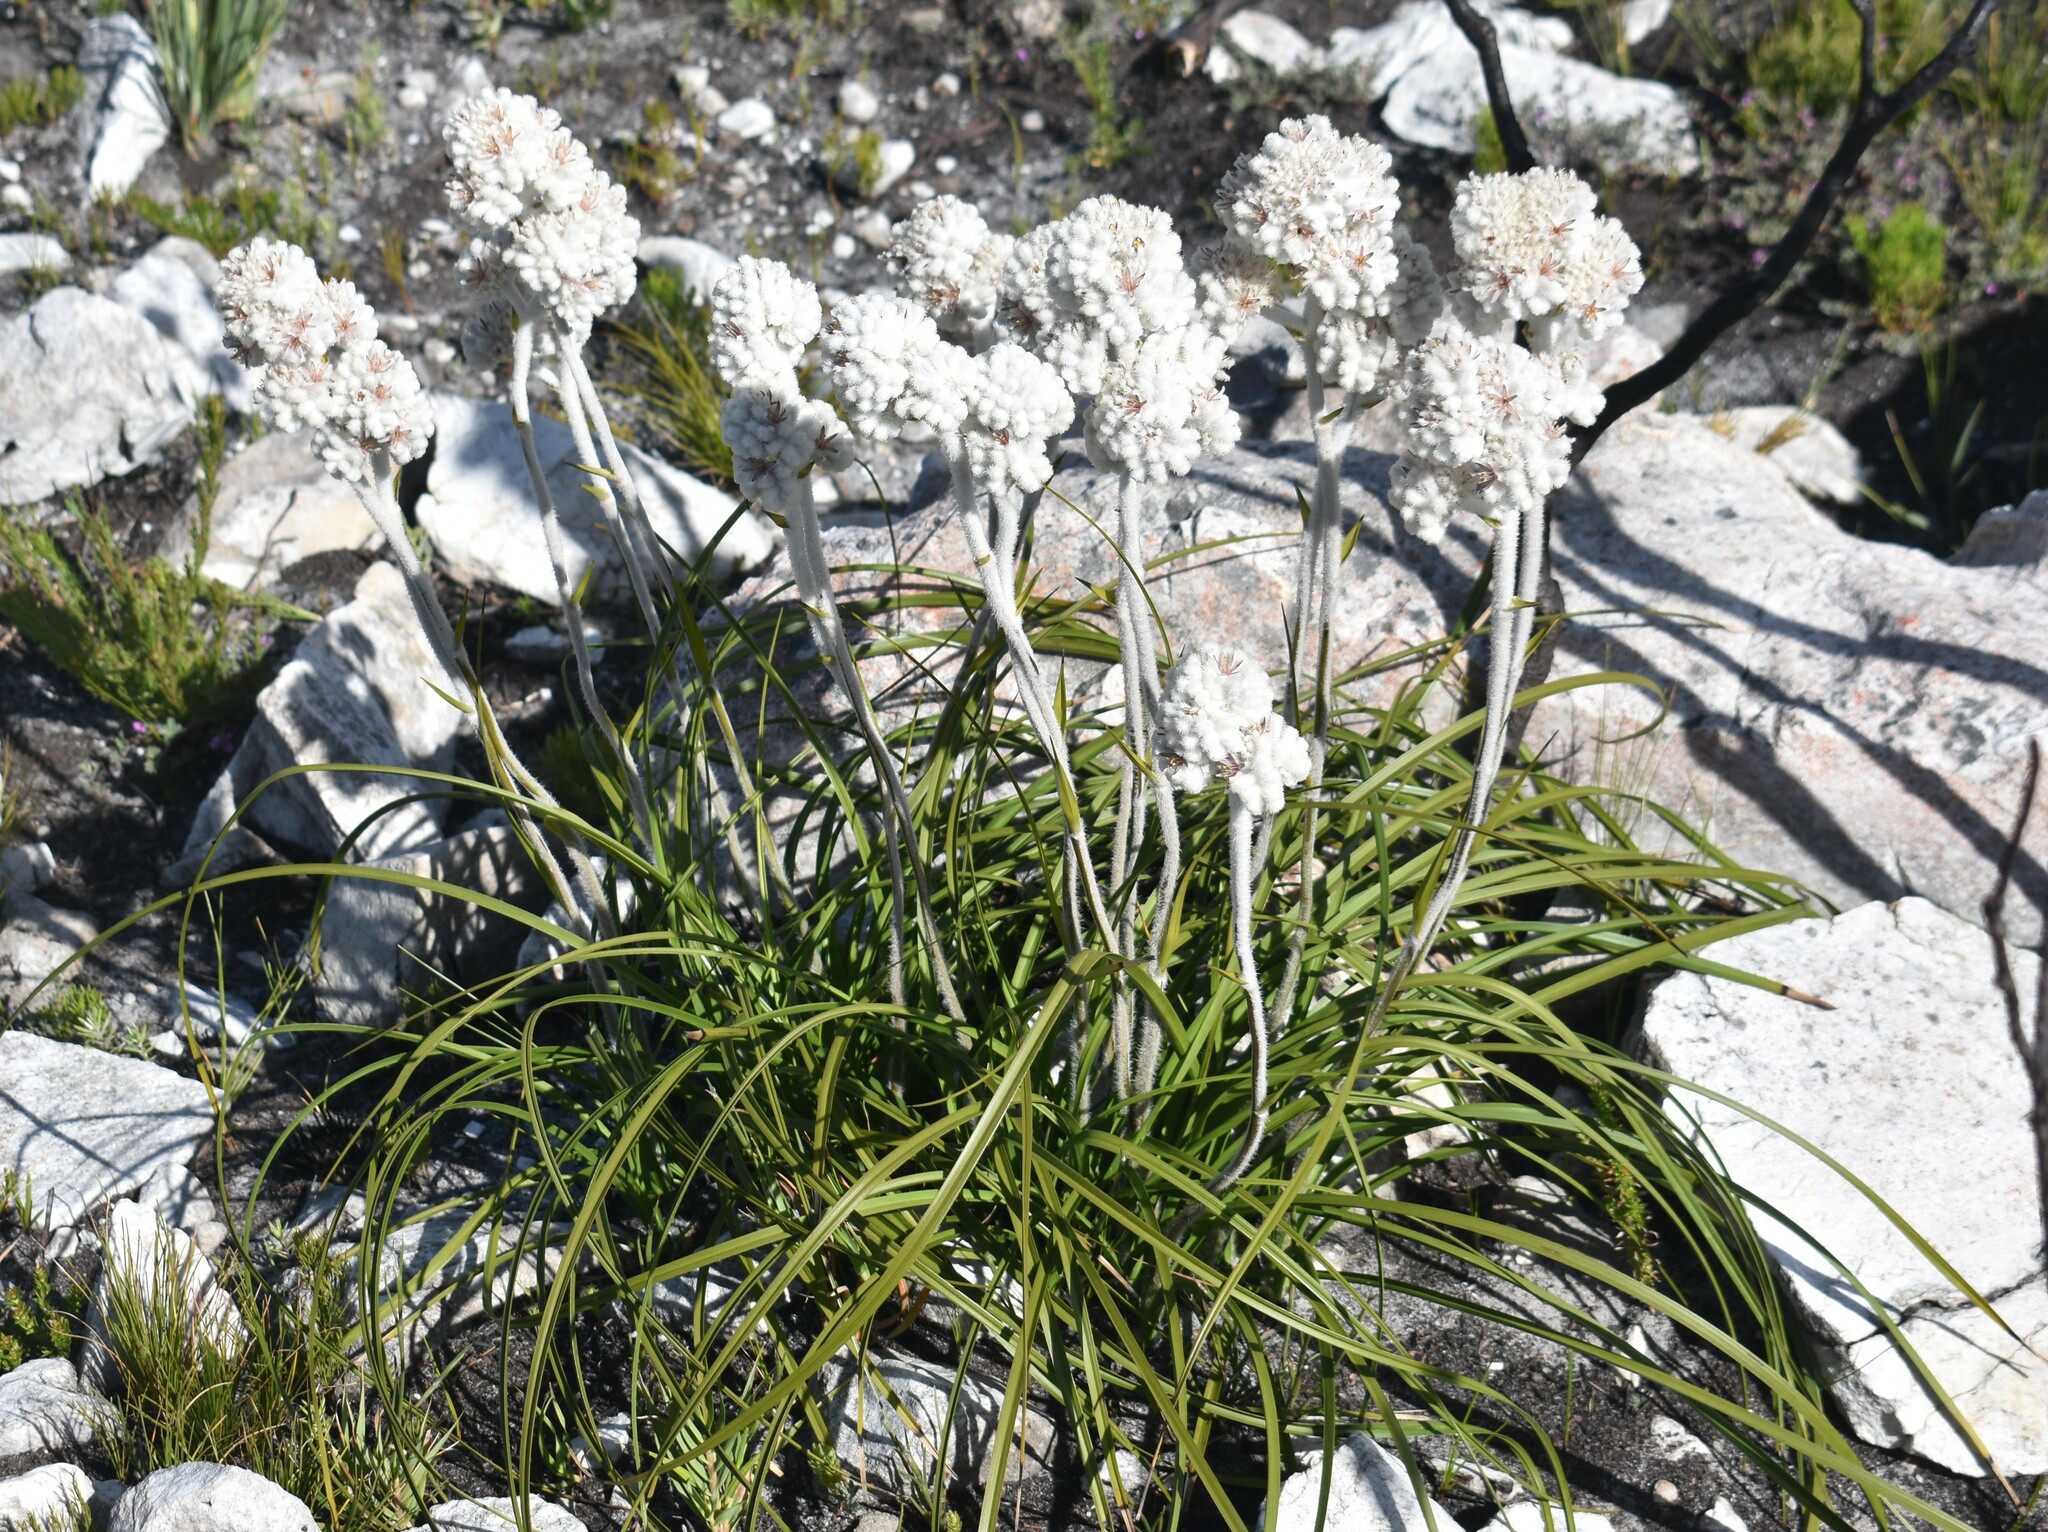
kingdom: Plantae
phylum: Tracheophyta
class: Liliopsida
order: Asparagales
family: Lanariaceae
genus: Lanaria
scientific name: Lanaria lanata
